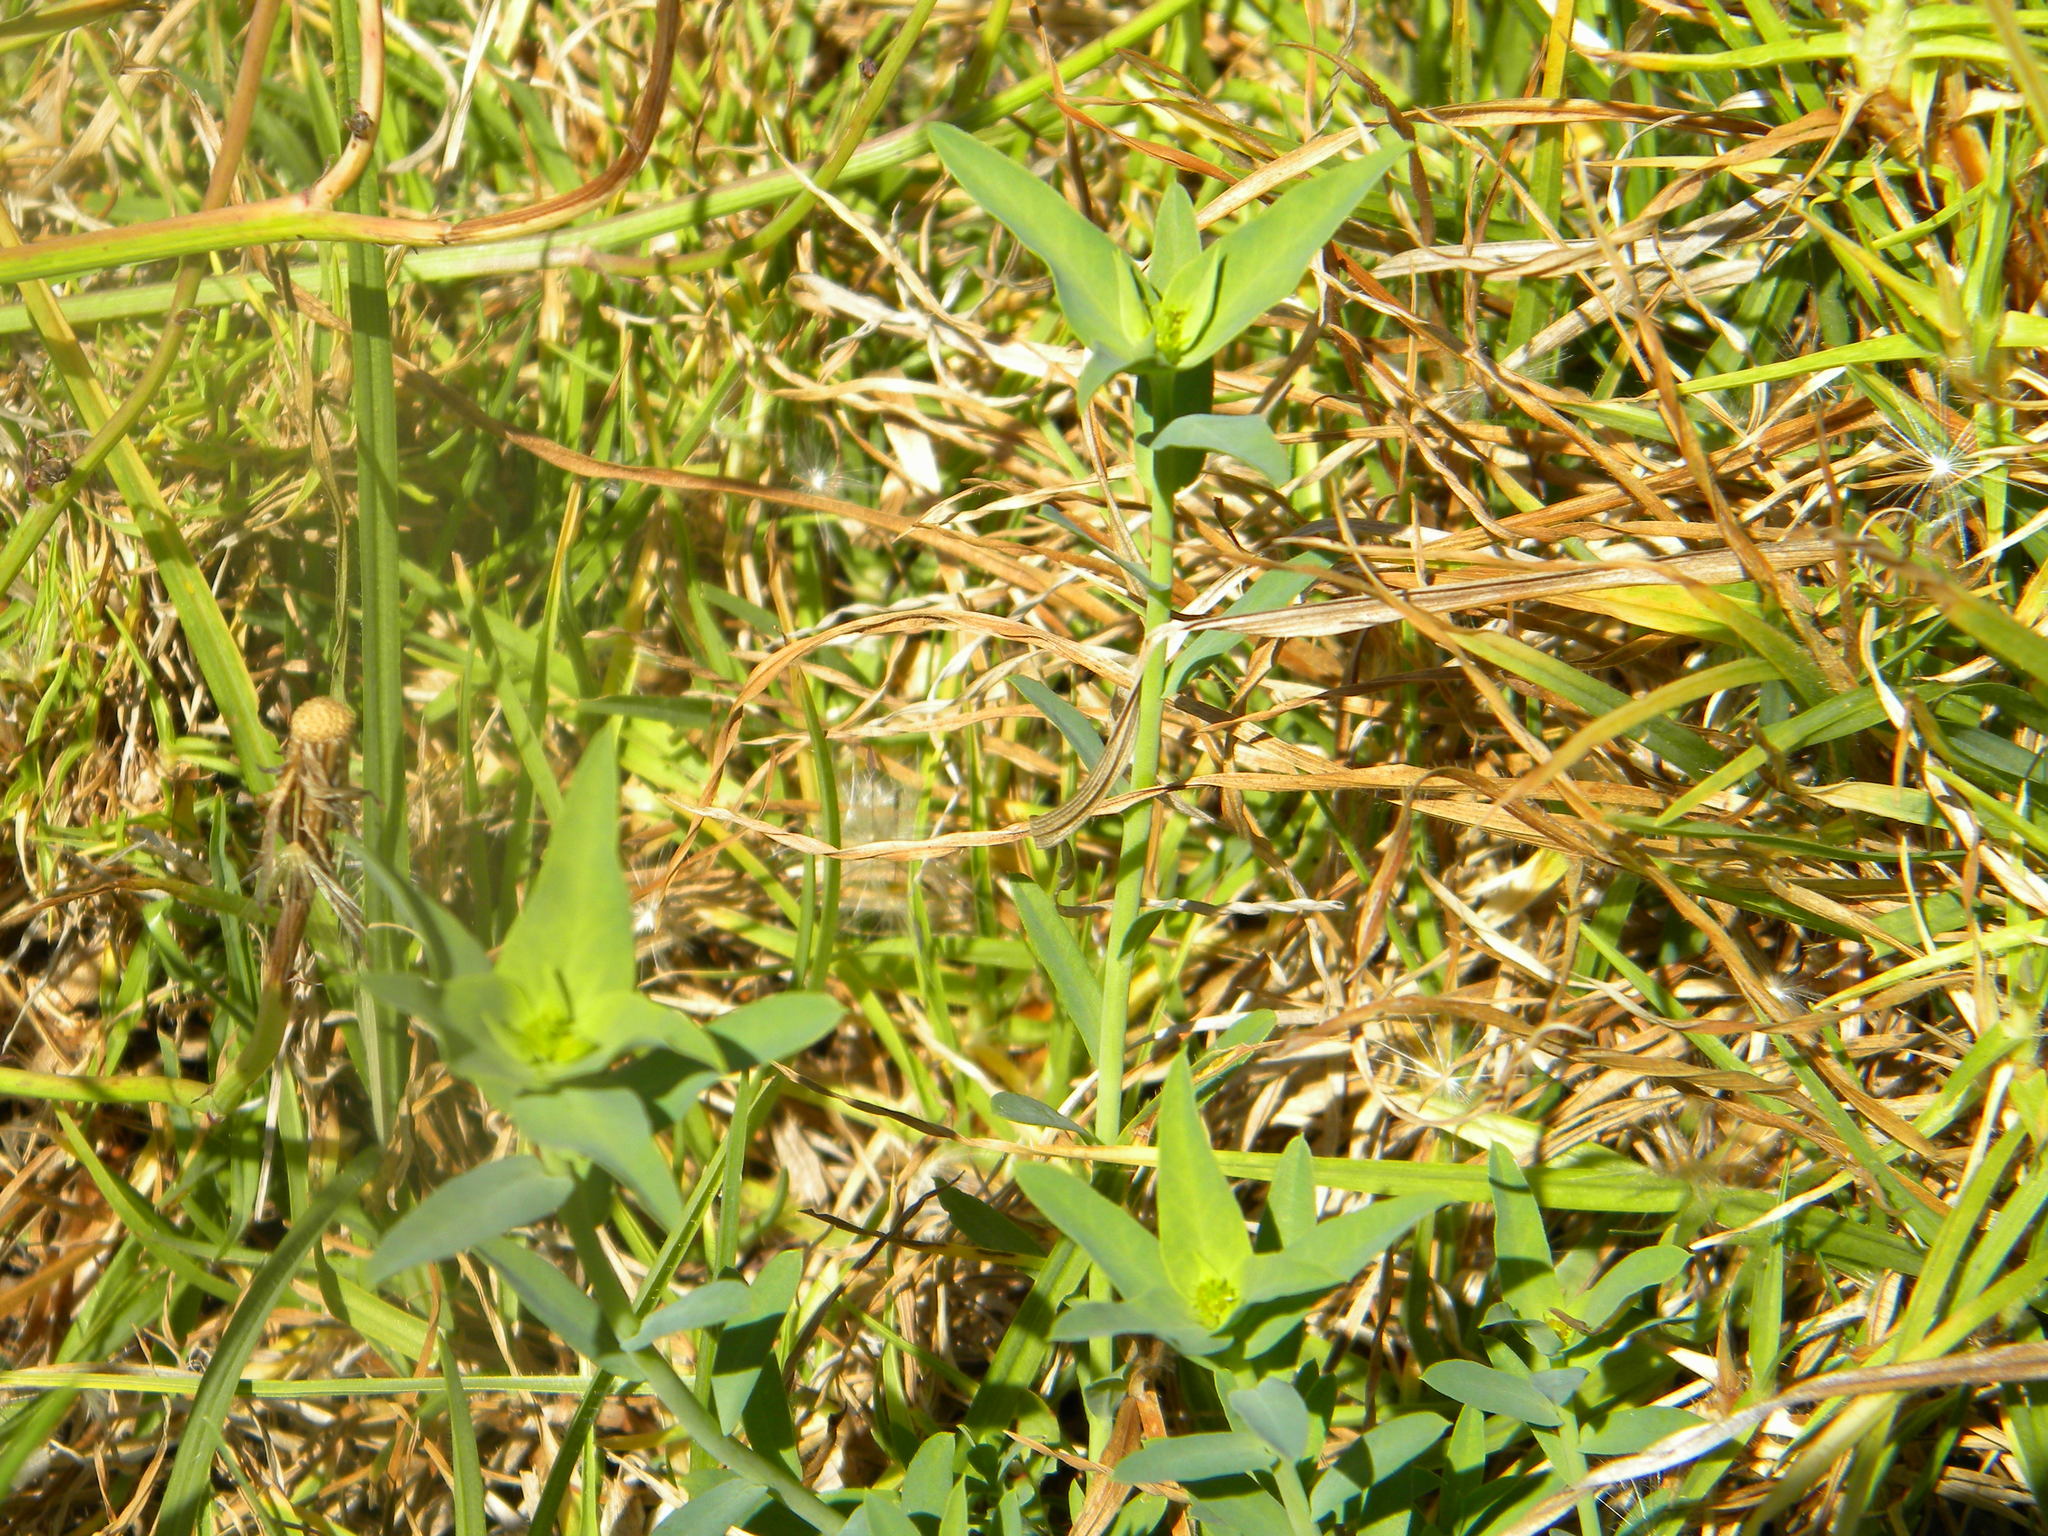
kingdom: Plantae
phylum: Tracheophyta
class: Magnoliopsida
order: Malpighiales
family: Euphorbiaceae
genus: Euphorbia
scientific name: Euphorbia terracina
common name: Geraldton carnation weed
